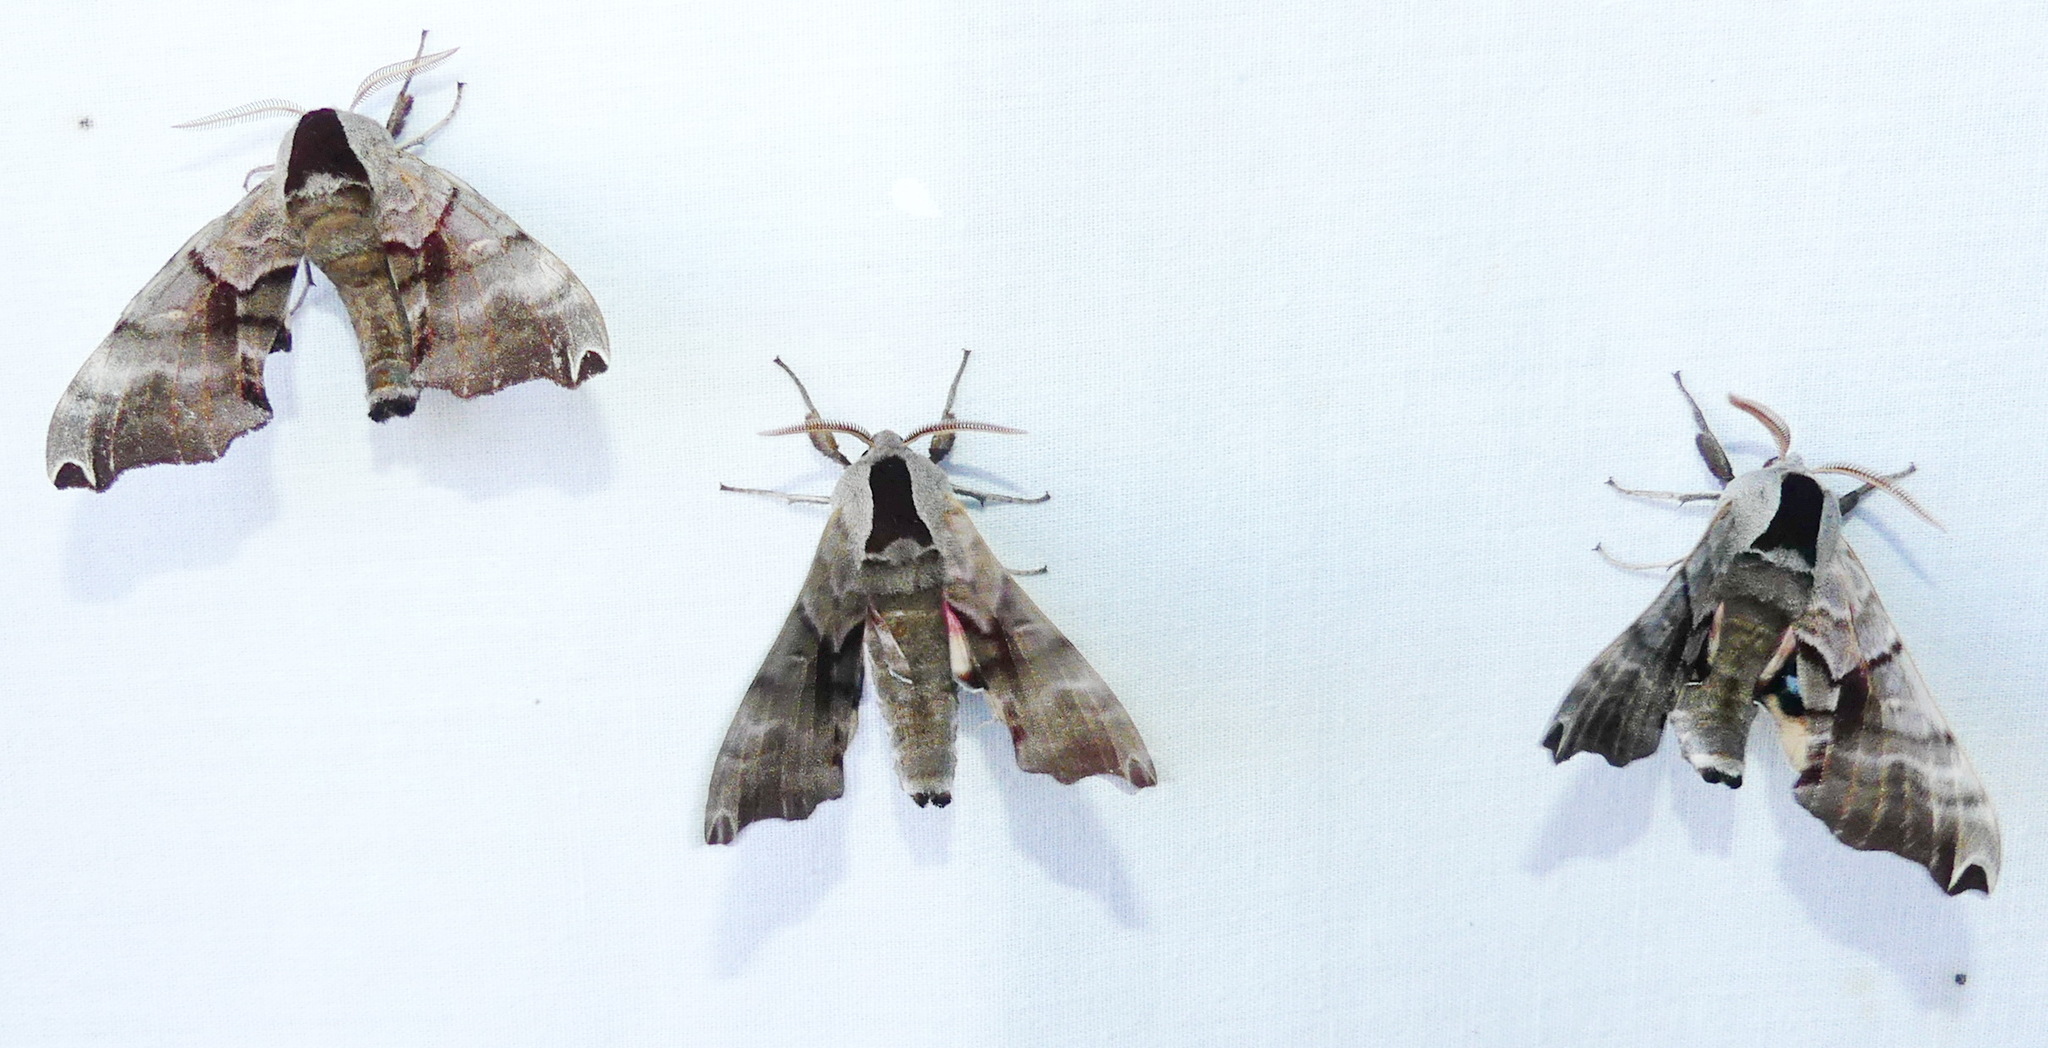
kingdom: Animalia
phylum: Arthropoda
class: Insecta
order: Lepidoptera
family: Sphingidae
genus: Smerinthus
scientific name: Smerinthus jamaicensis
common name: Twin spotted sphinx
